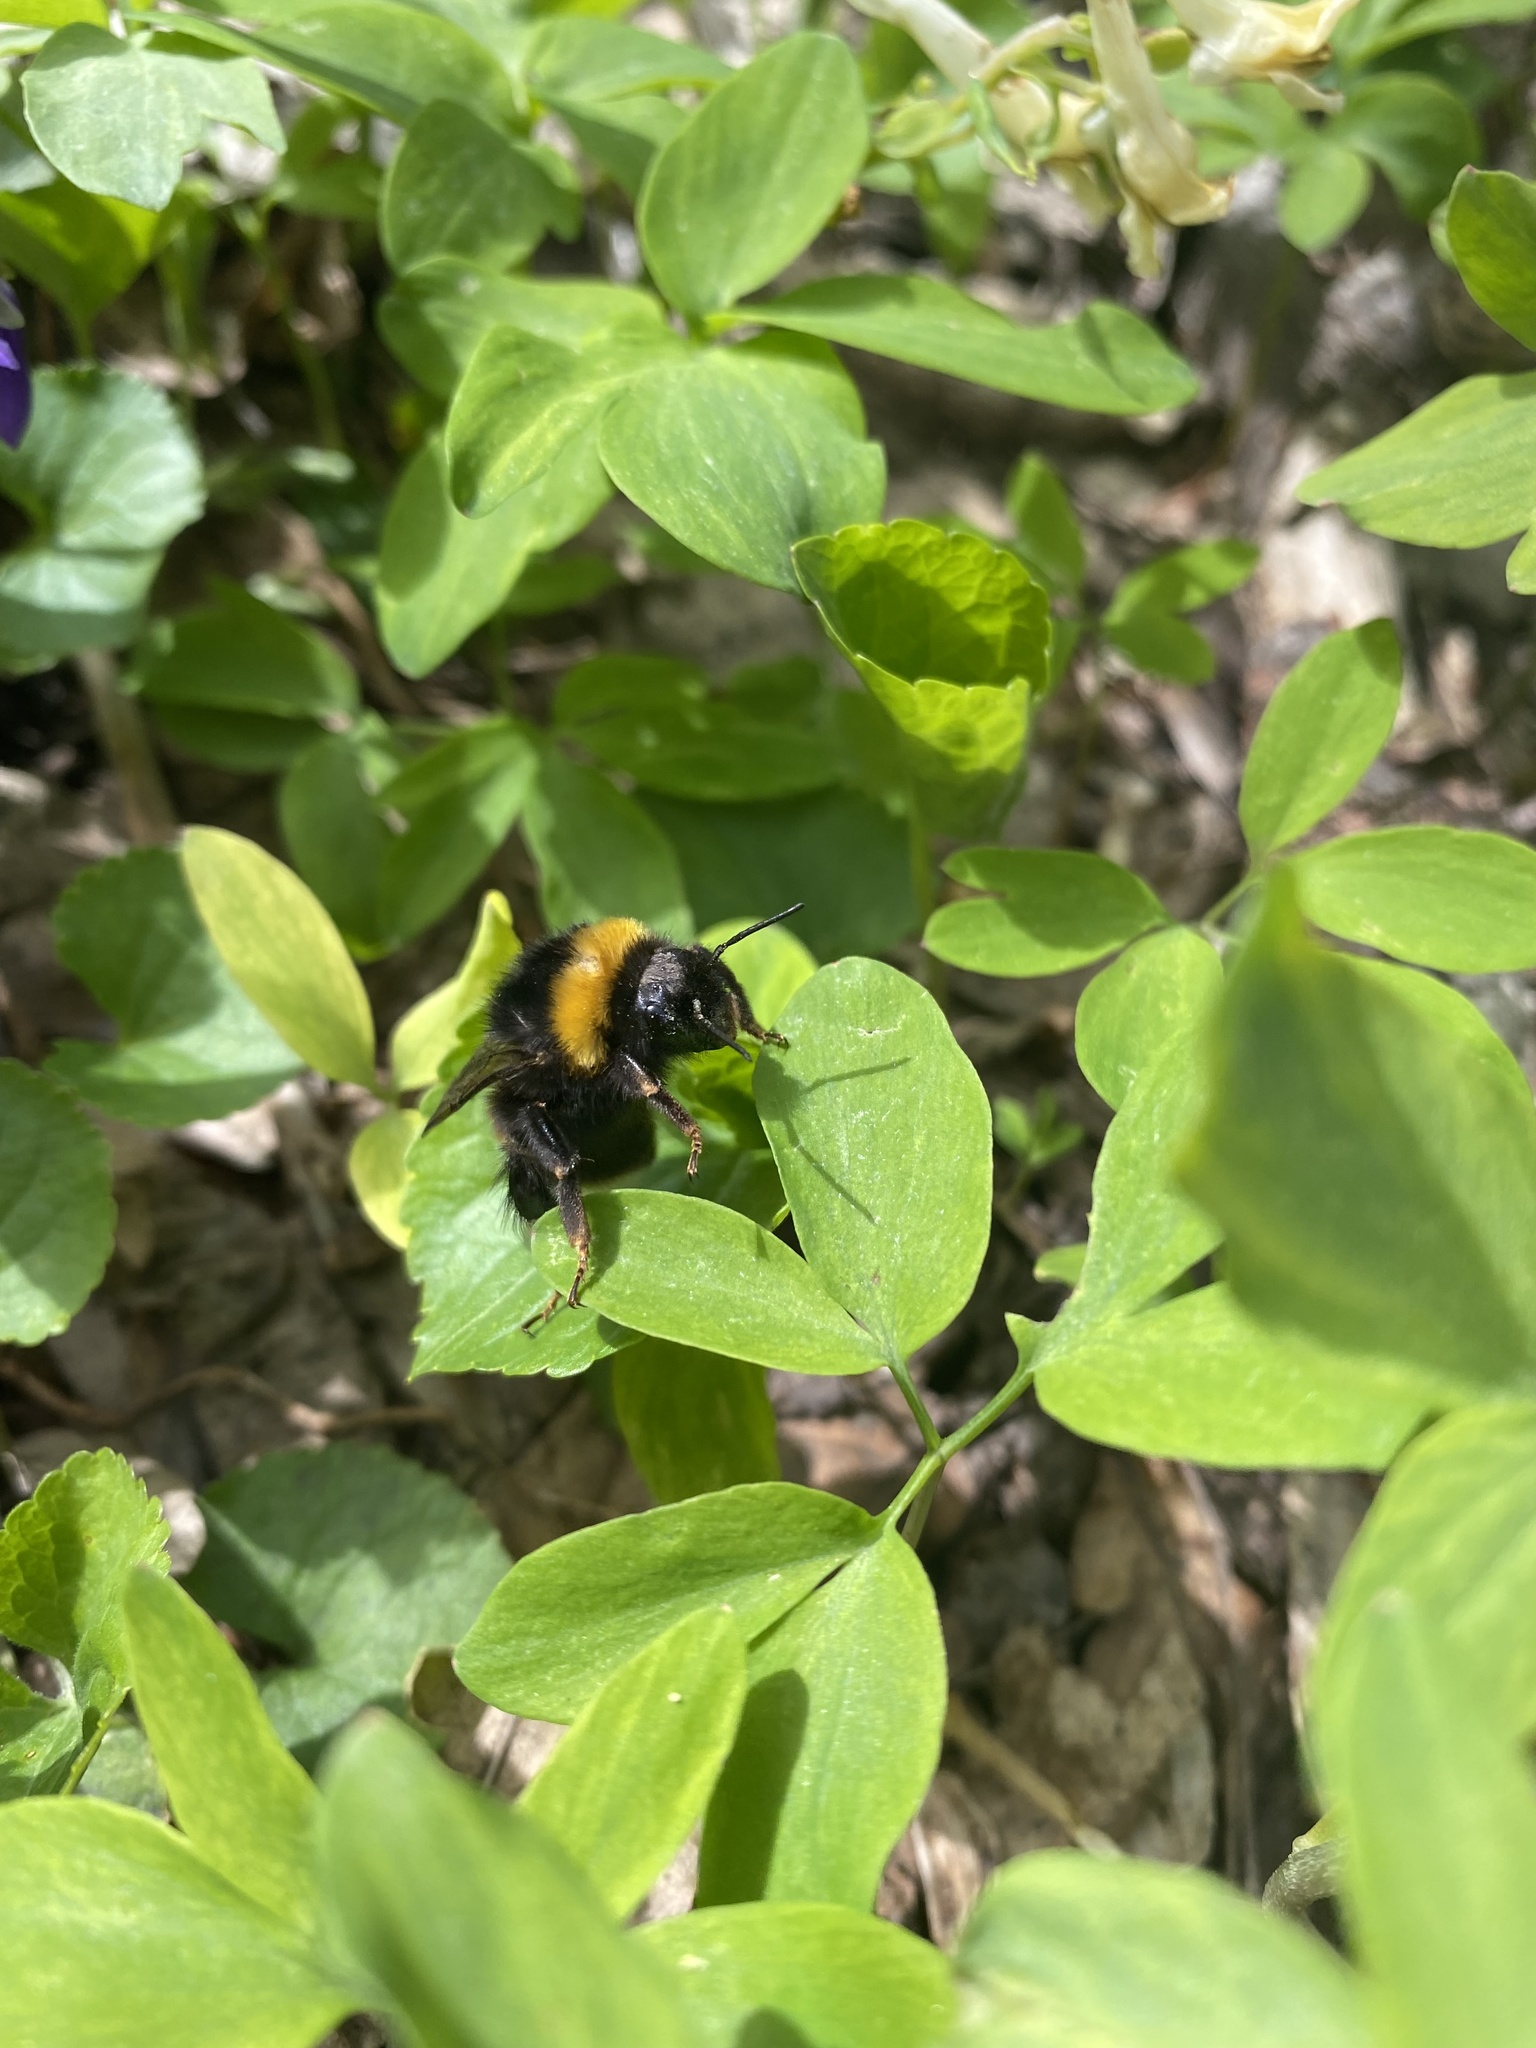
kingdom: Animalia
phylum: Arthropoda
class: Insecta
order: Hymenoptera
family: Apidae
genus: Bombus
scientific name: Bombus
